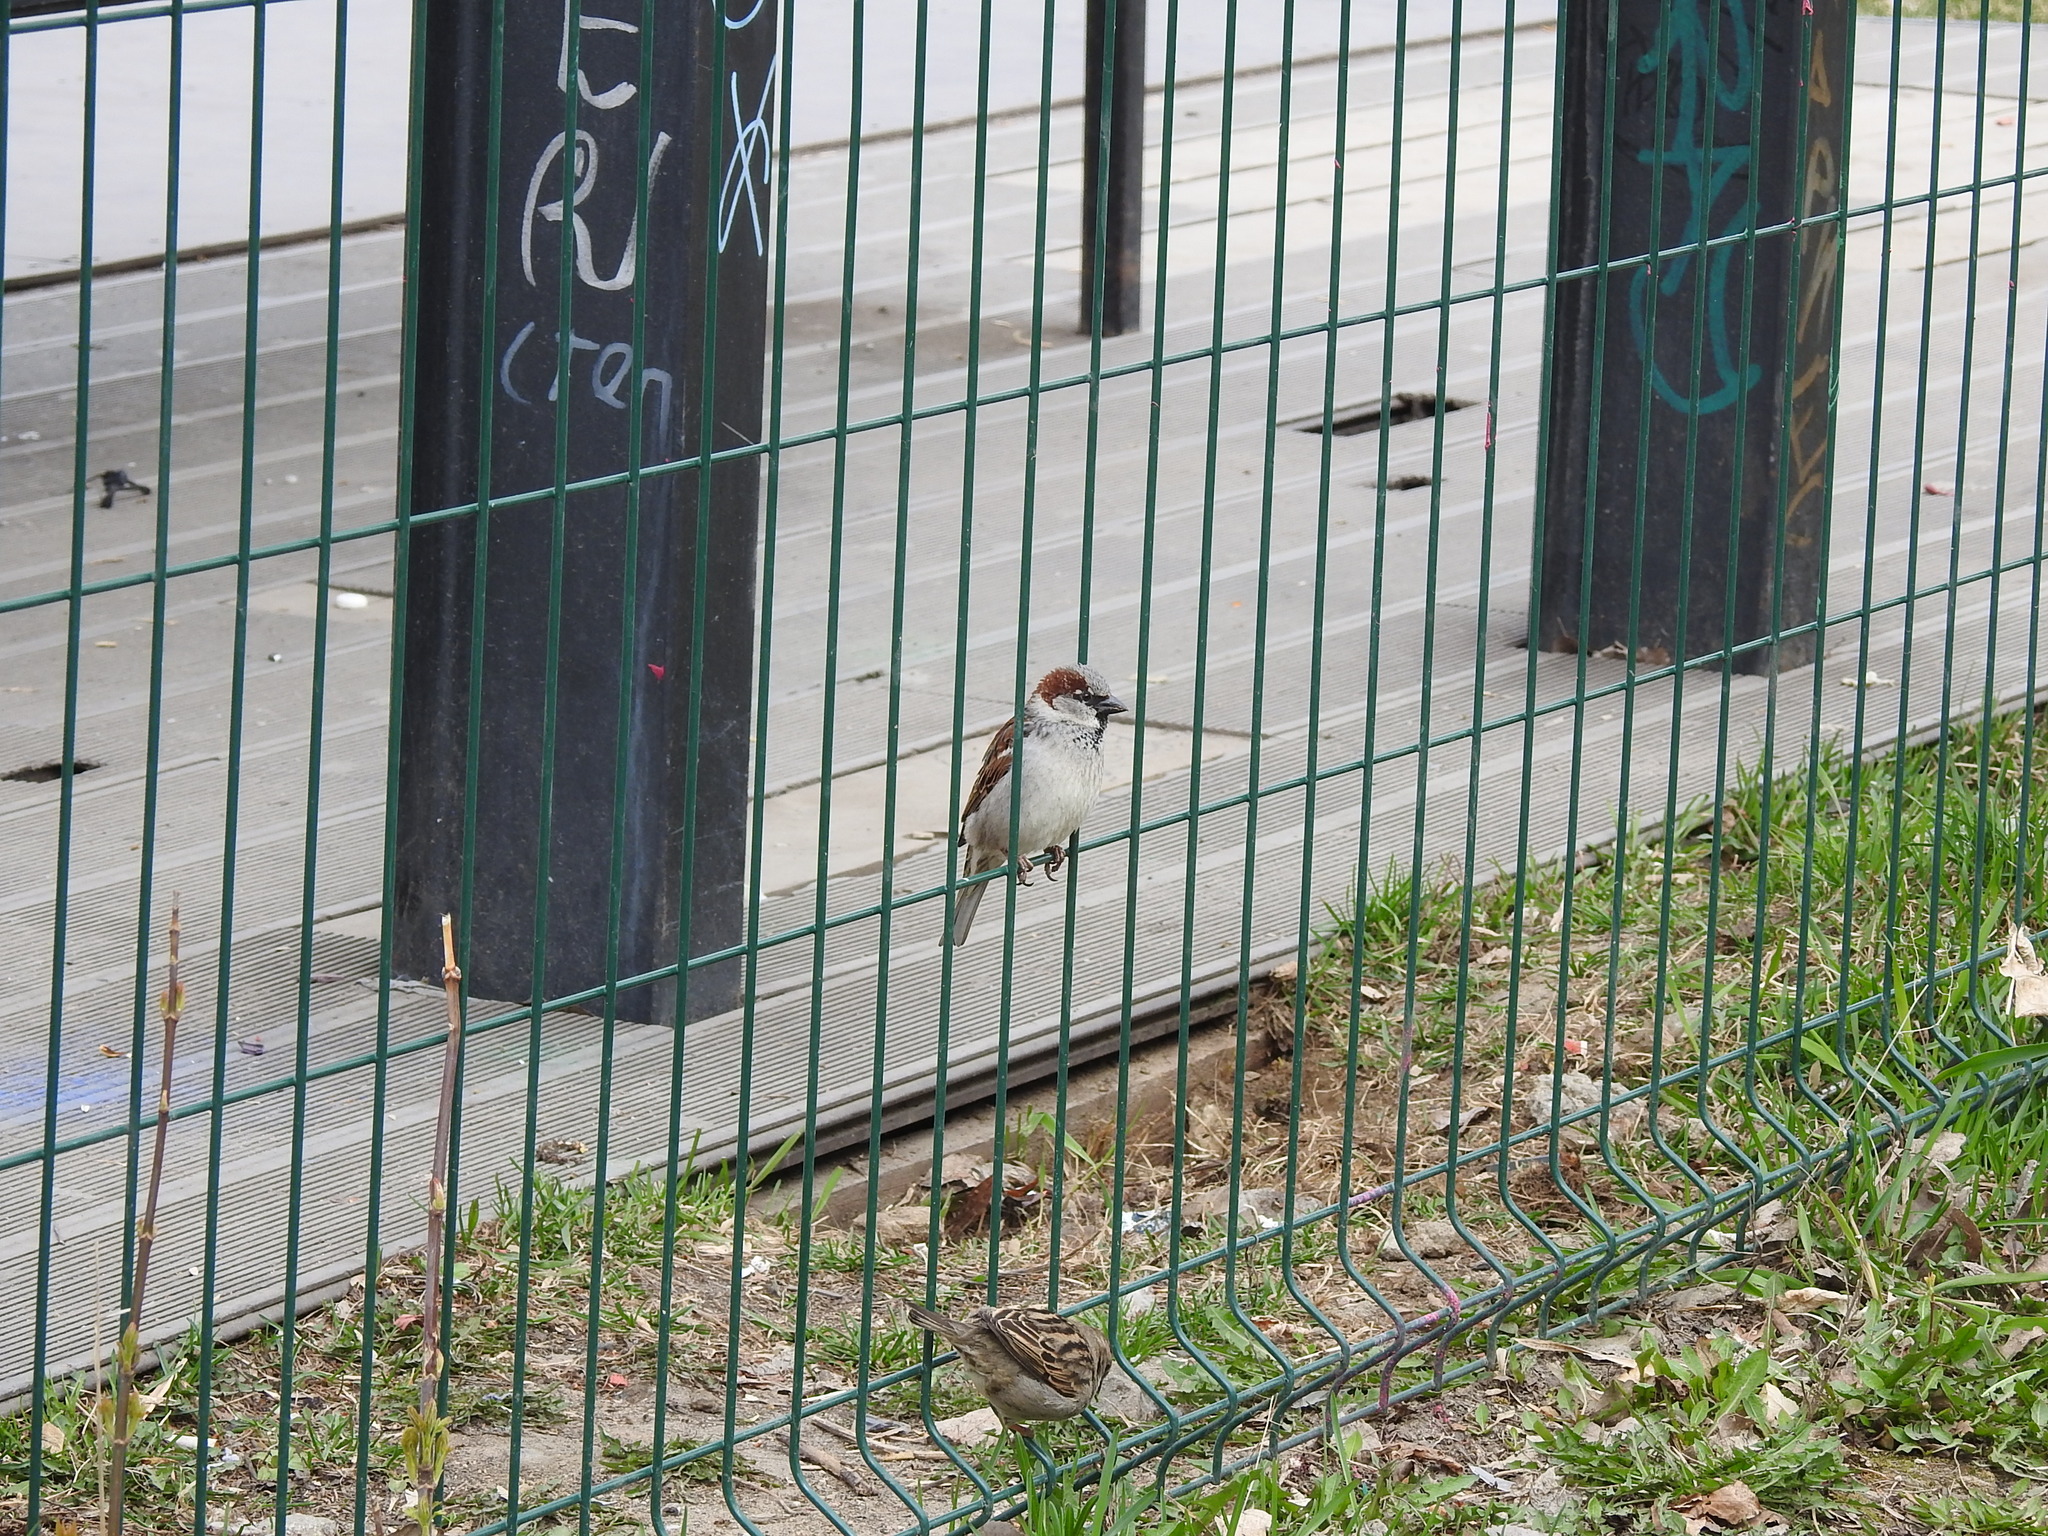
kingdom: Animalia
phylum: Chordata
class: Aves
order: Passeriformes
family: Passeridae
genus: Passer
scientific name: Passer domesticus
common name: House sparrow
